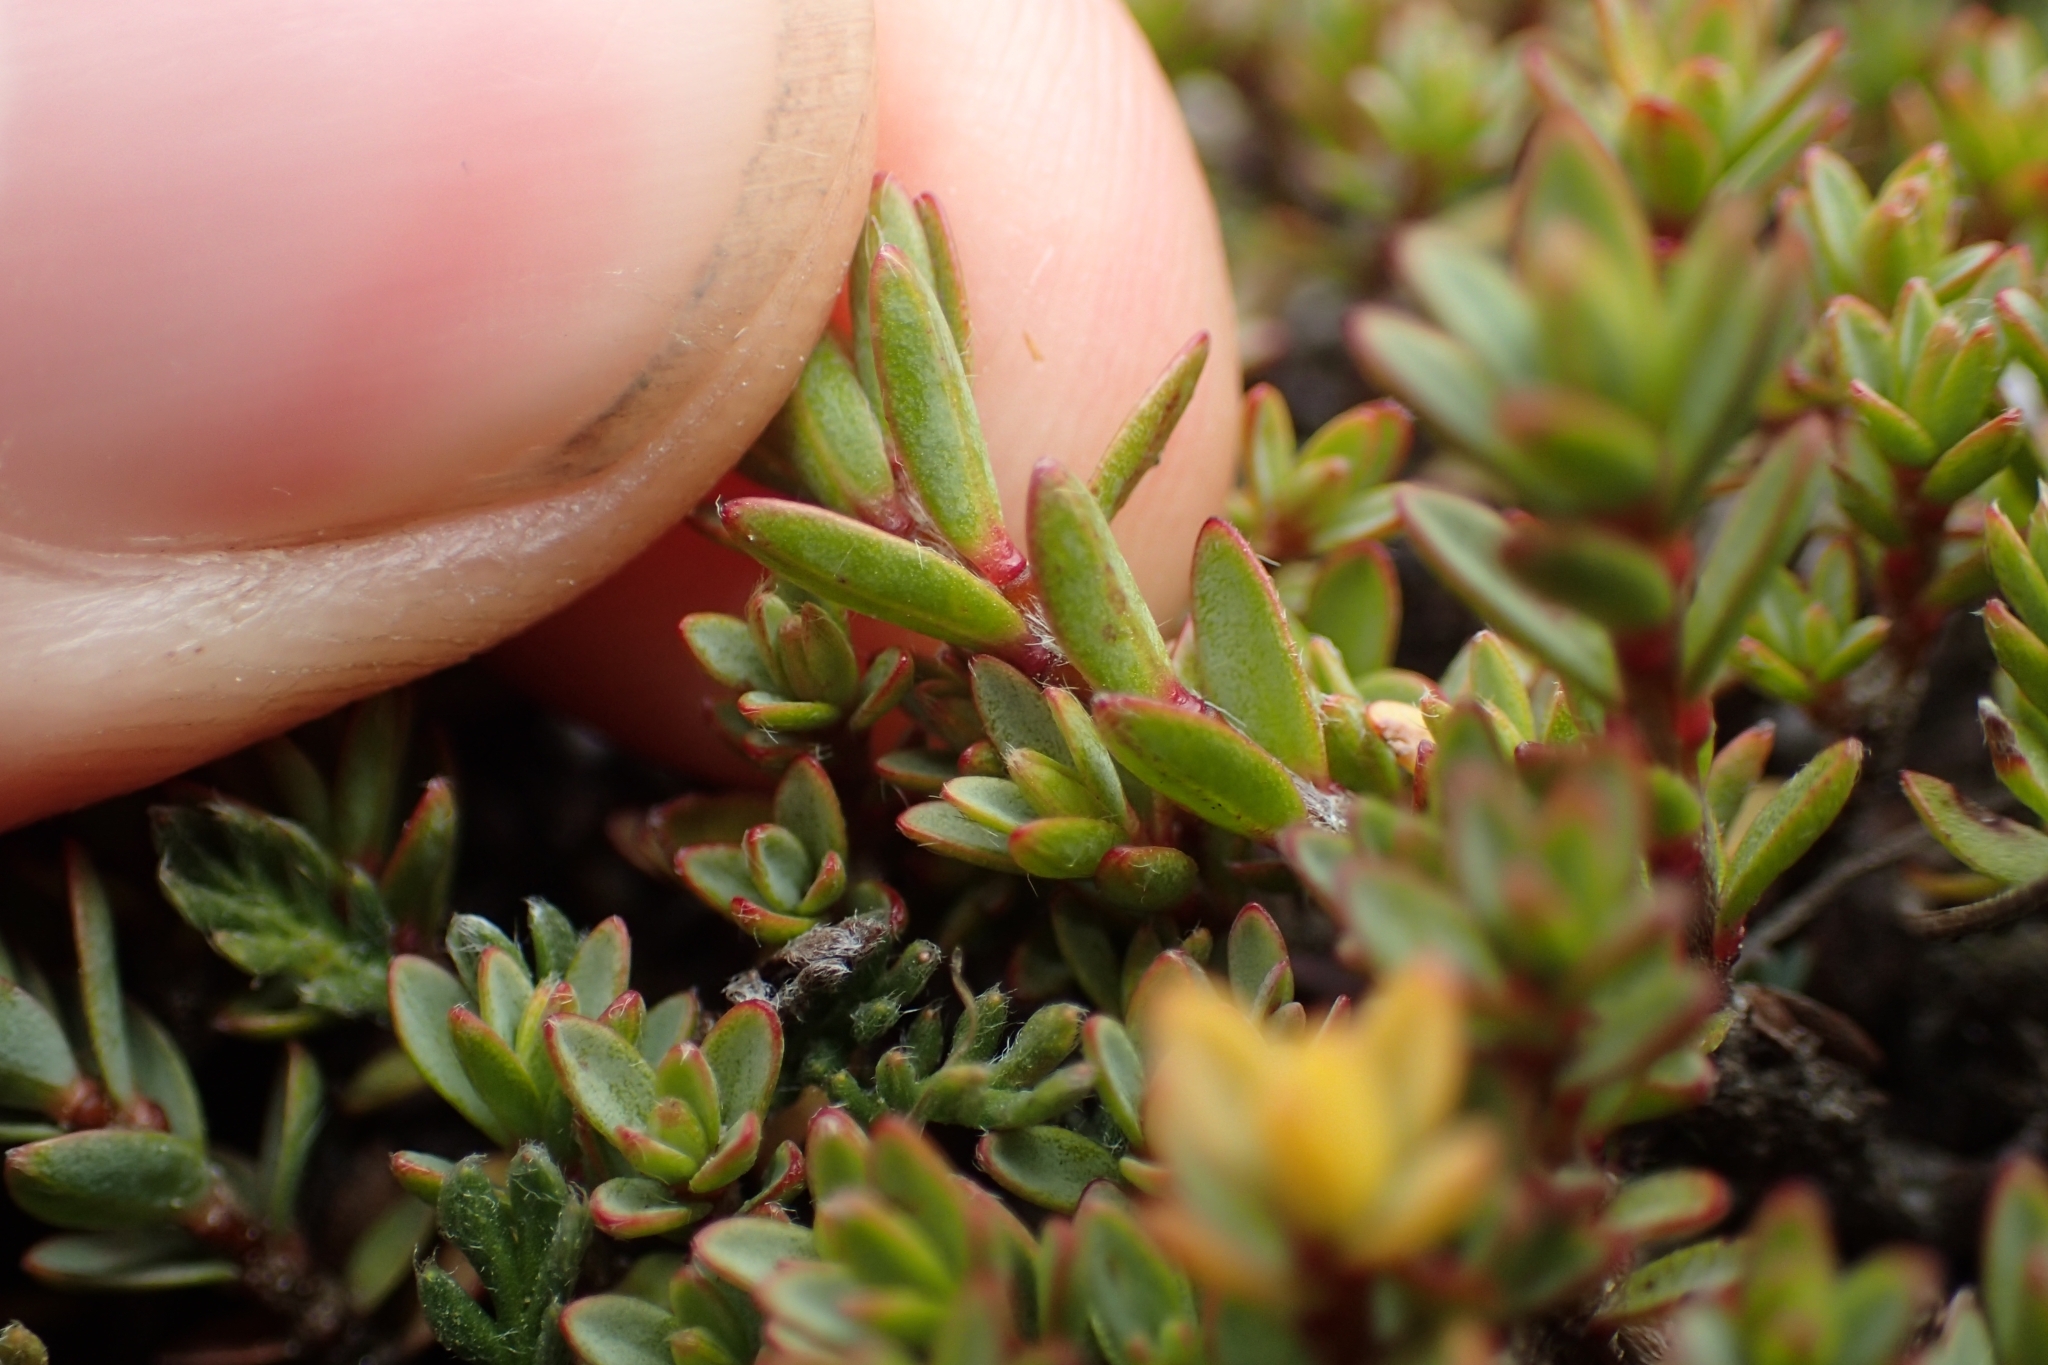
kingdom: Plantae
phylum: Tracheophyta
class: Magnoliopsida
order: Malvales
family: Thymelaeaceae
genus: Pimelea
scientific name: Pimelea notia
